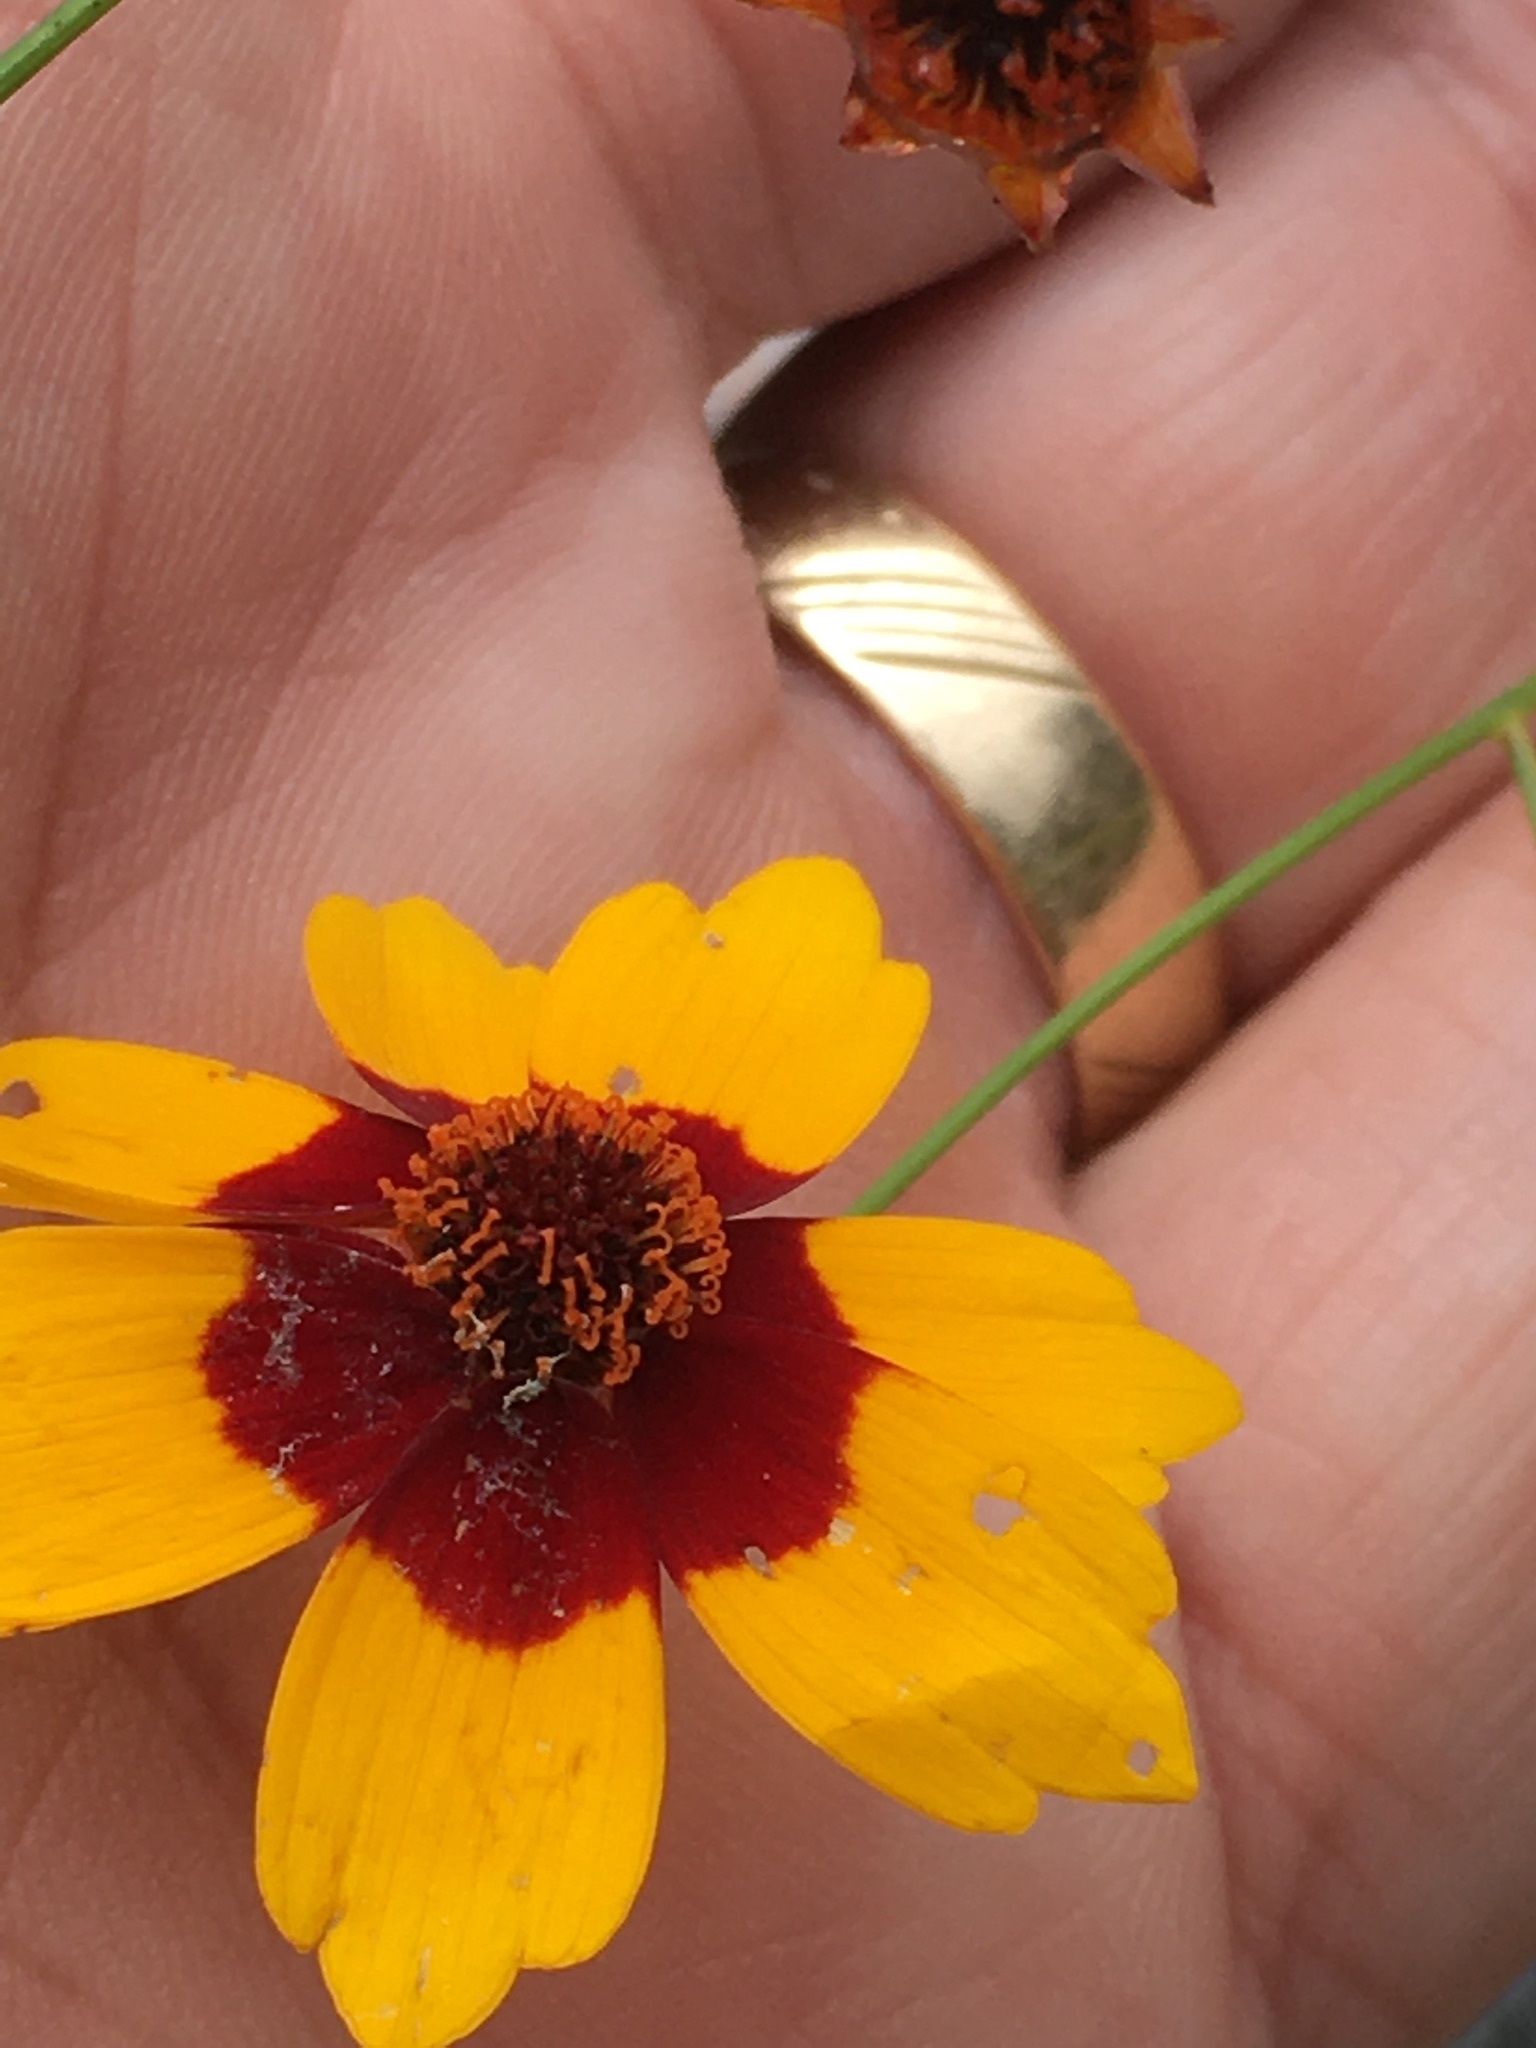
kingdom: Plantae
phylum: Tracheophyta
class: Magnoliopsida
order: Asterales
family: Asteraceae
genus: Coreopsis
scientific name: Coreopsis tinctoria
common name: Garden tickseed
